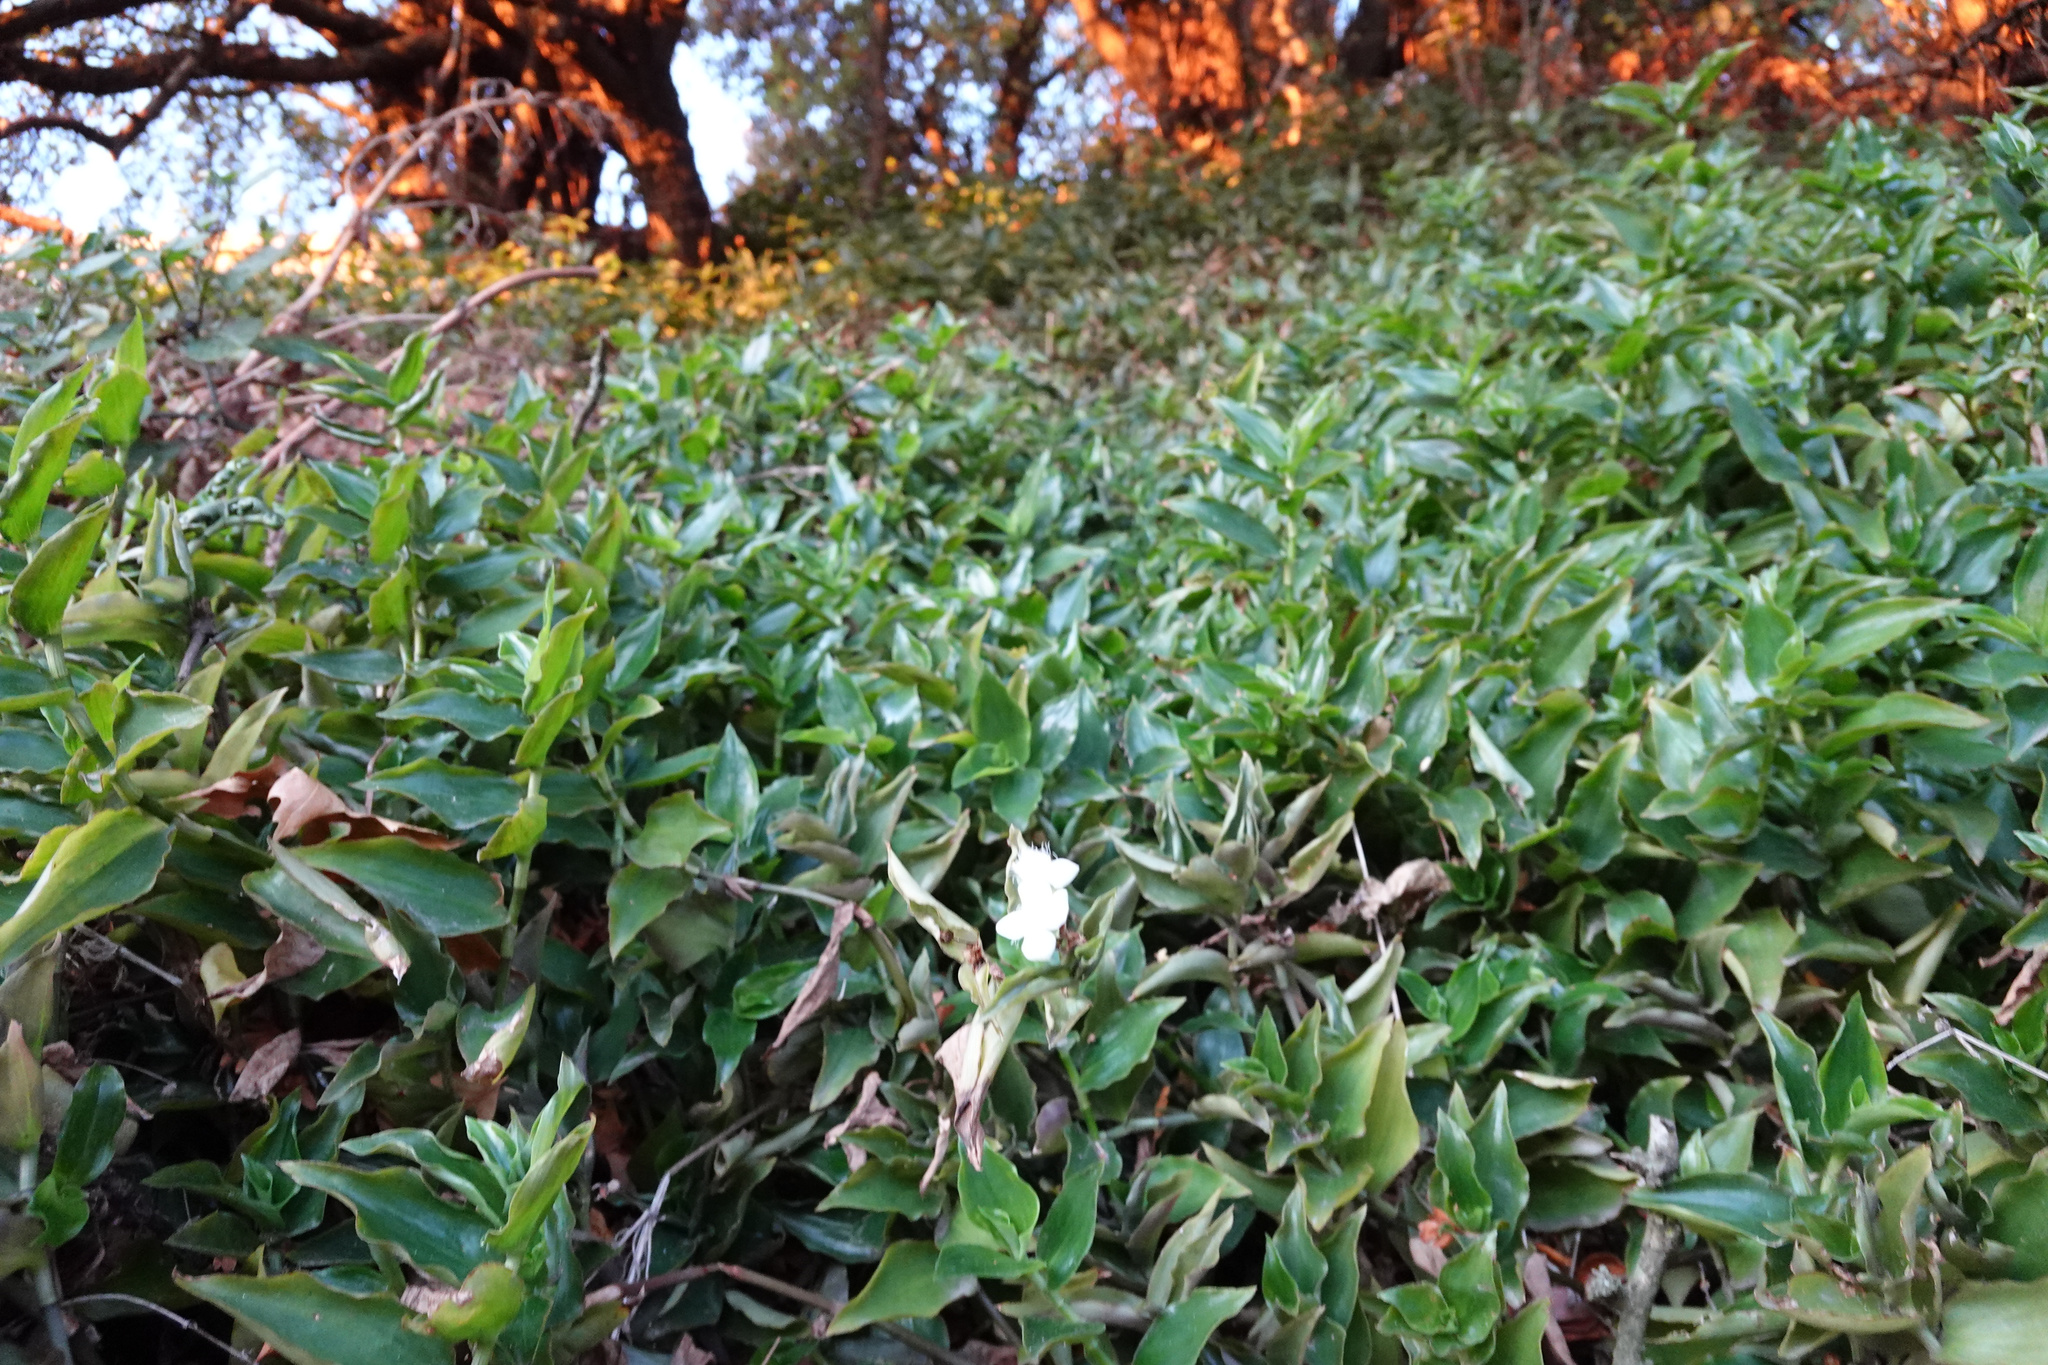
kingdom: Plantae
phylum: Tracheophyta
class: Liliopsida
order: Commelinales
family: Commelinaceae
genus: Tradescantia
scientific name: Tradescantia fluminensis
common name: Wandering-jew
